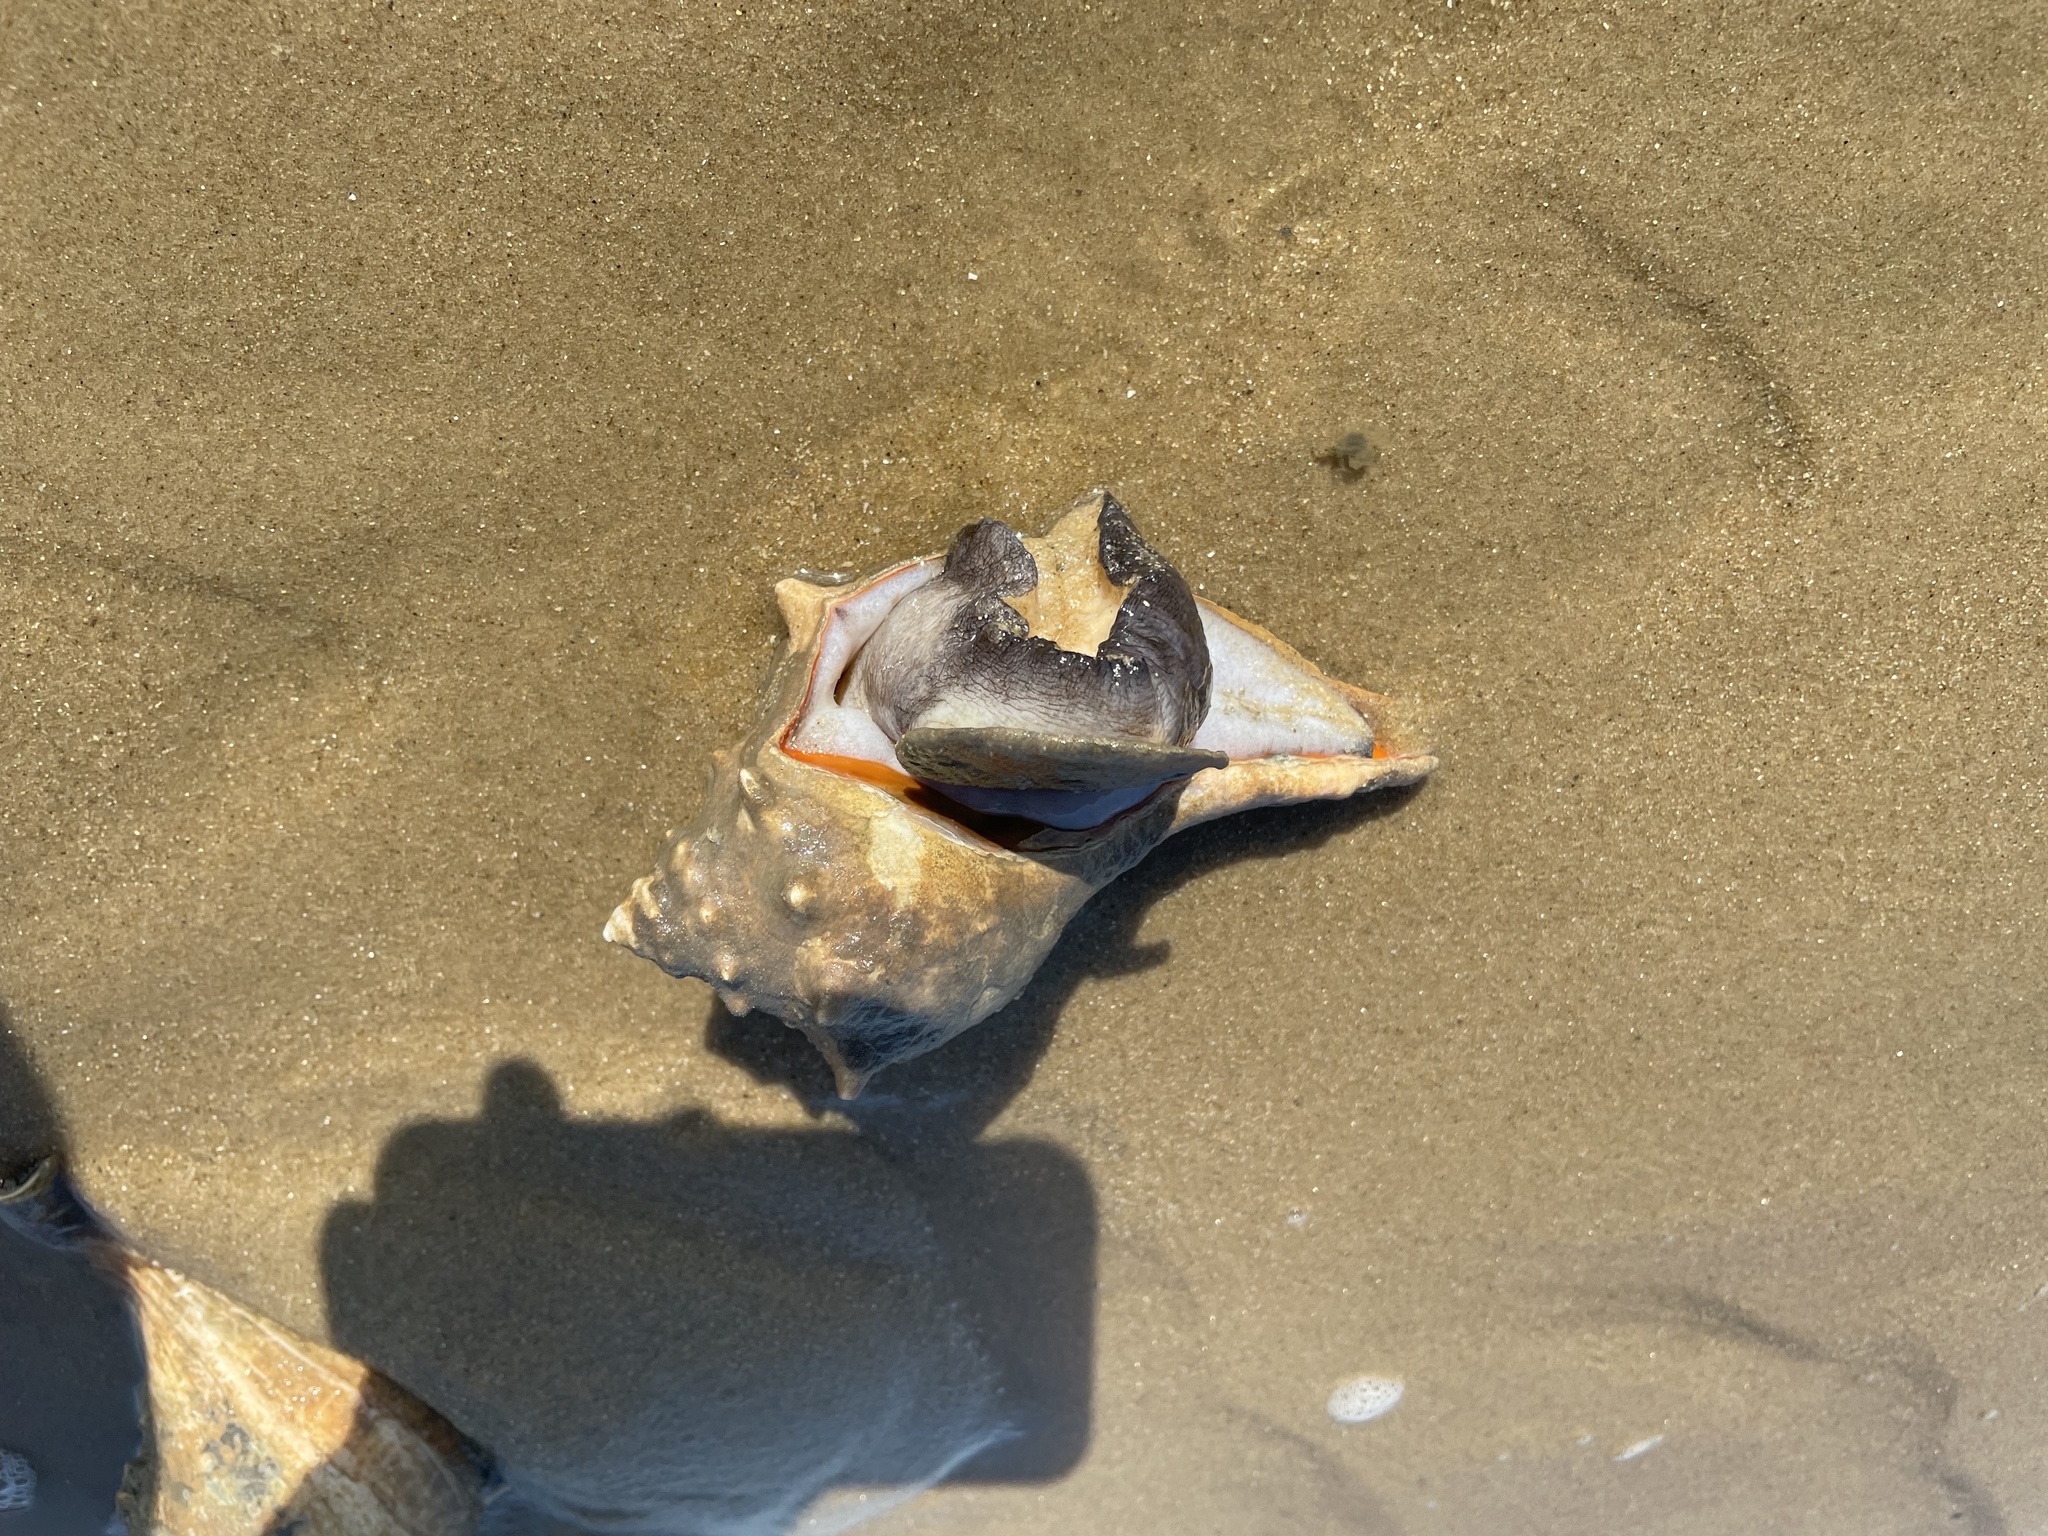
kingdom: Animalia
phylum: Mollusca
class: Gastropoda
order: Neogastropoda
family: Busyconidae
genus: Busycon
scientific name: Busycon carica
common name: Knobbed whelk
